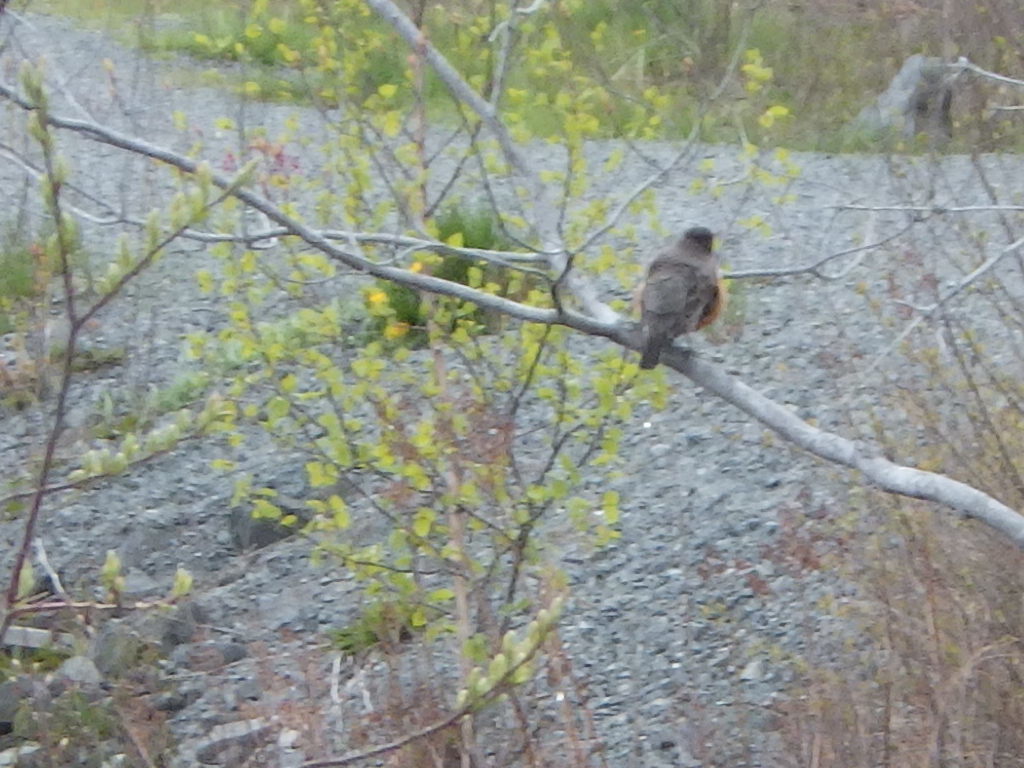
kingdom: Animalia
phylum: Chordata
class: Aves
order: Passeriformes
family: Turdidae
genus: Turdus
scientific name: Turdus migratorius
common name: American robin
